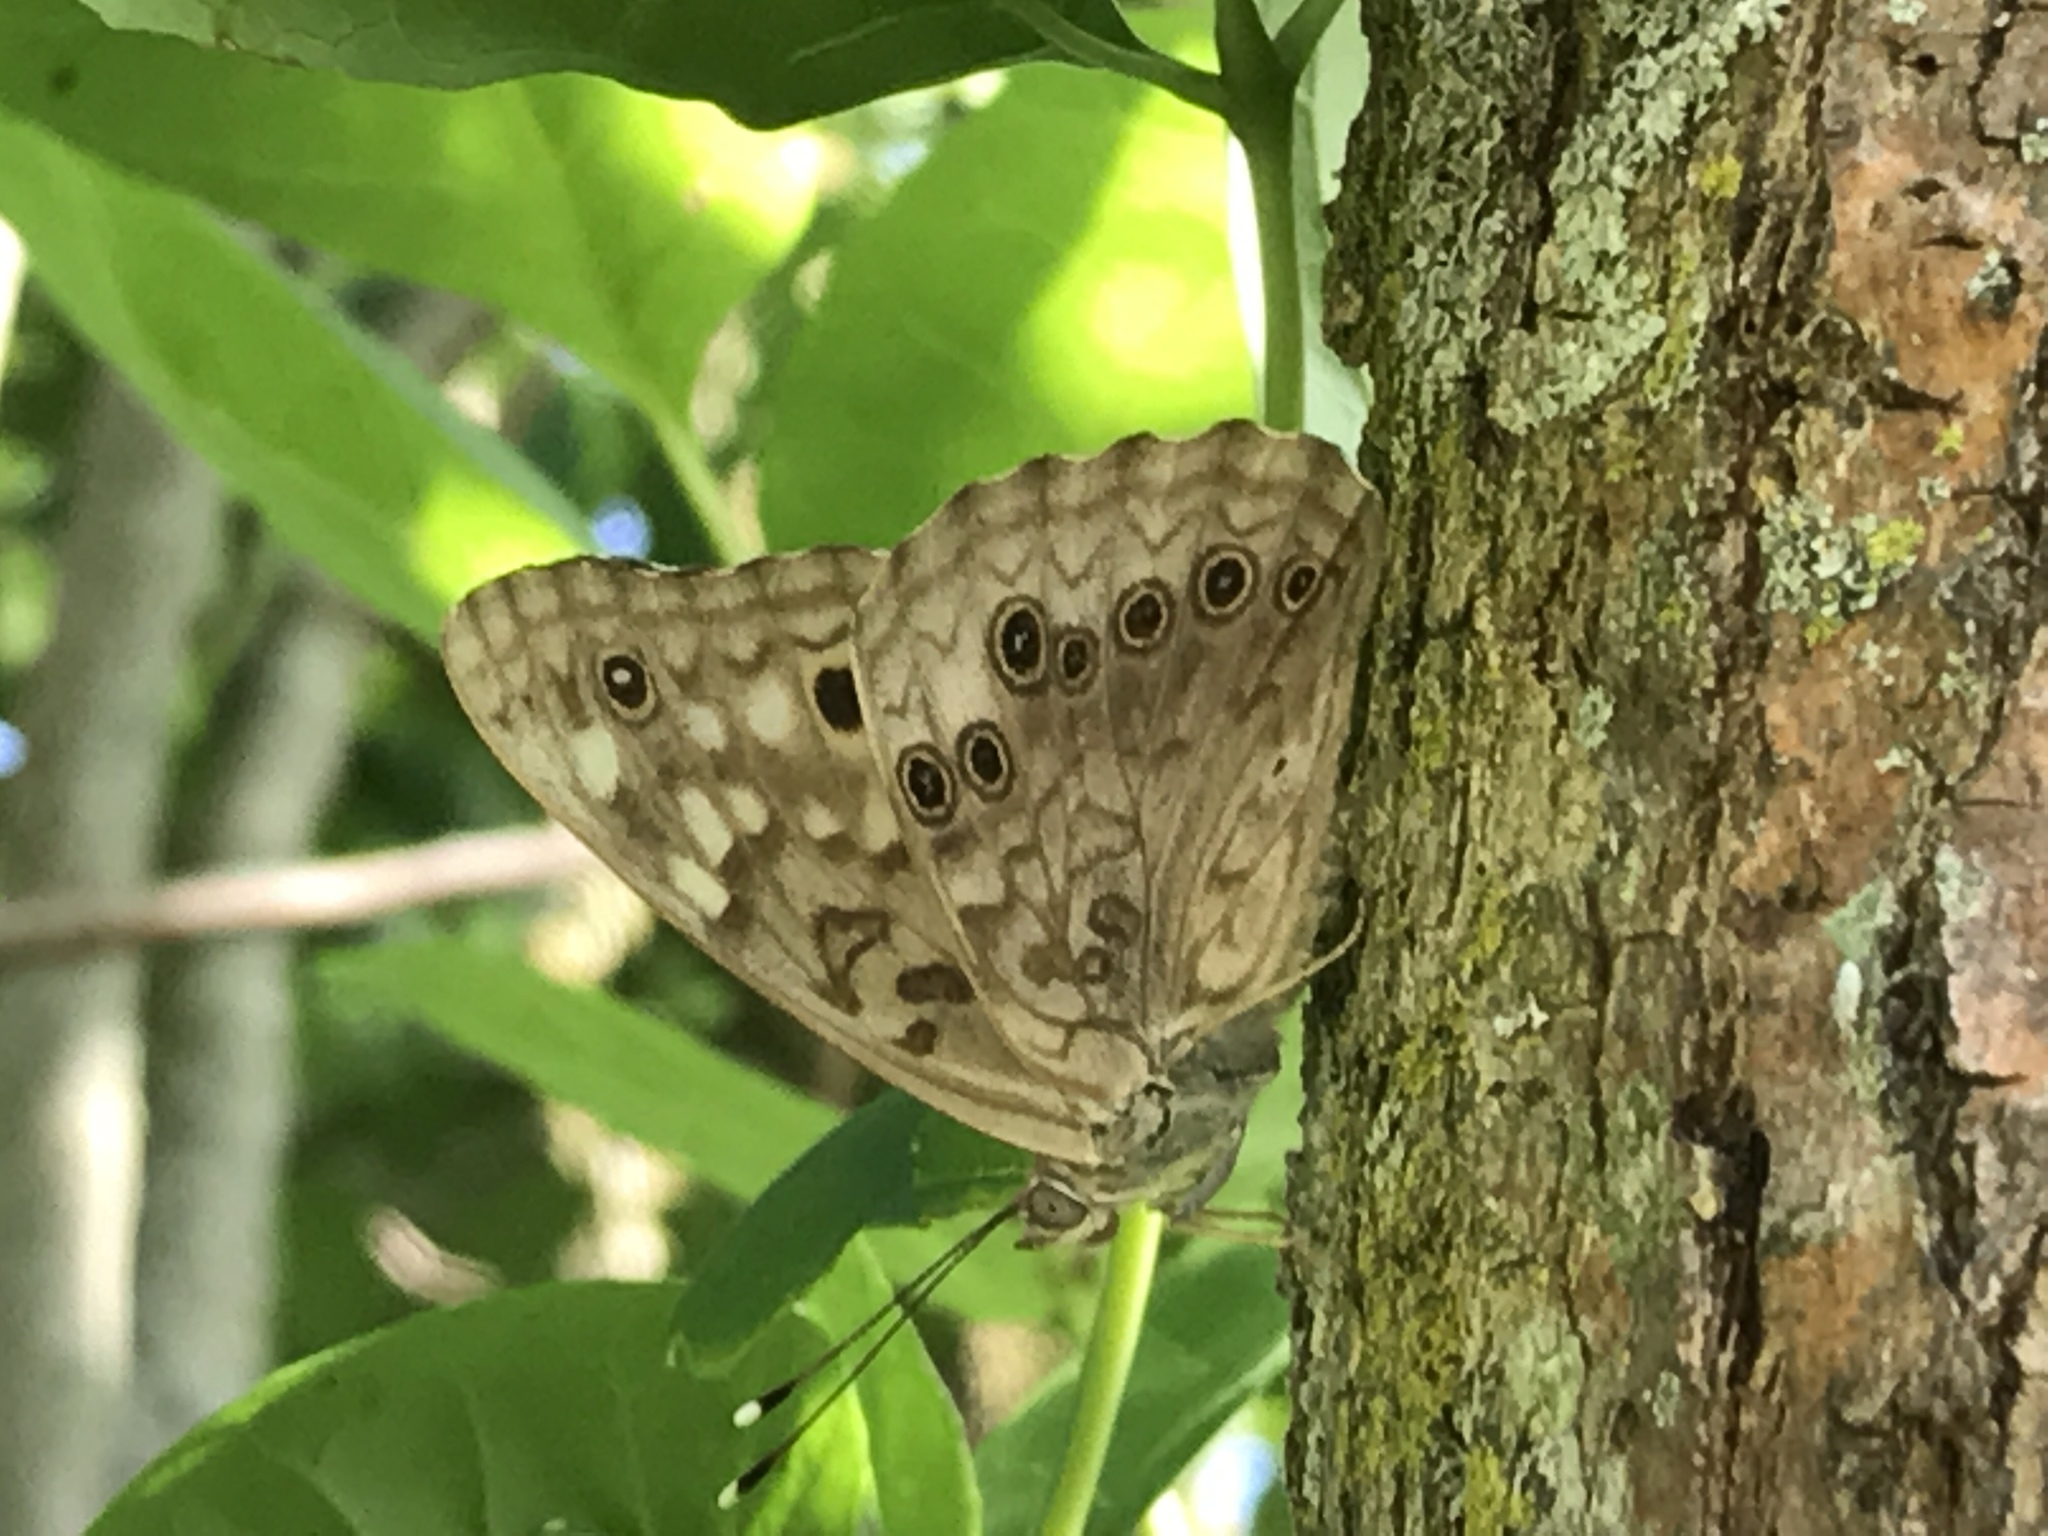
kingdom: Animalia
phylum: Arthropoda
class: Insecta
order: Lepidoptera
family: Nymphalidae
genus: Asterocampa
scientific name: Asterocampa celtis
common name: Hackberry emperor
